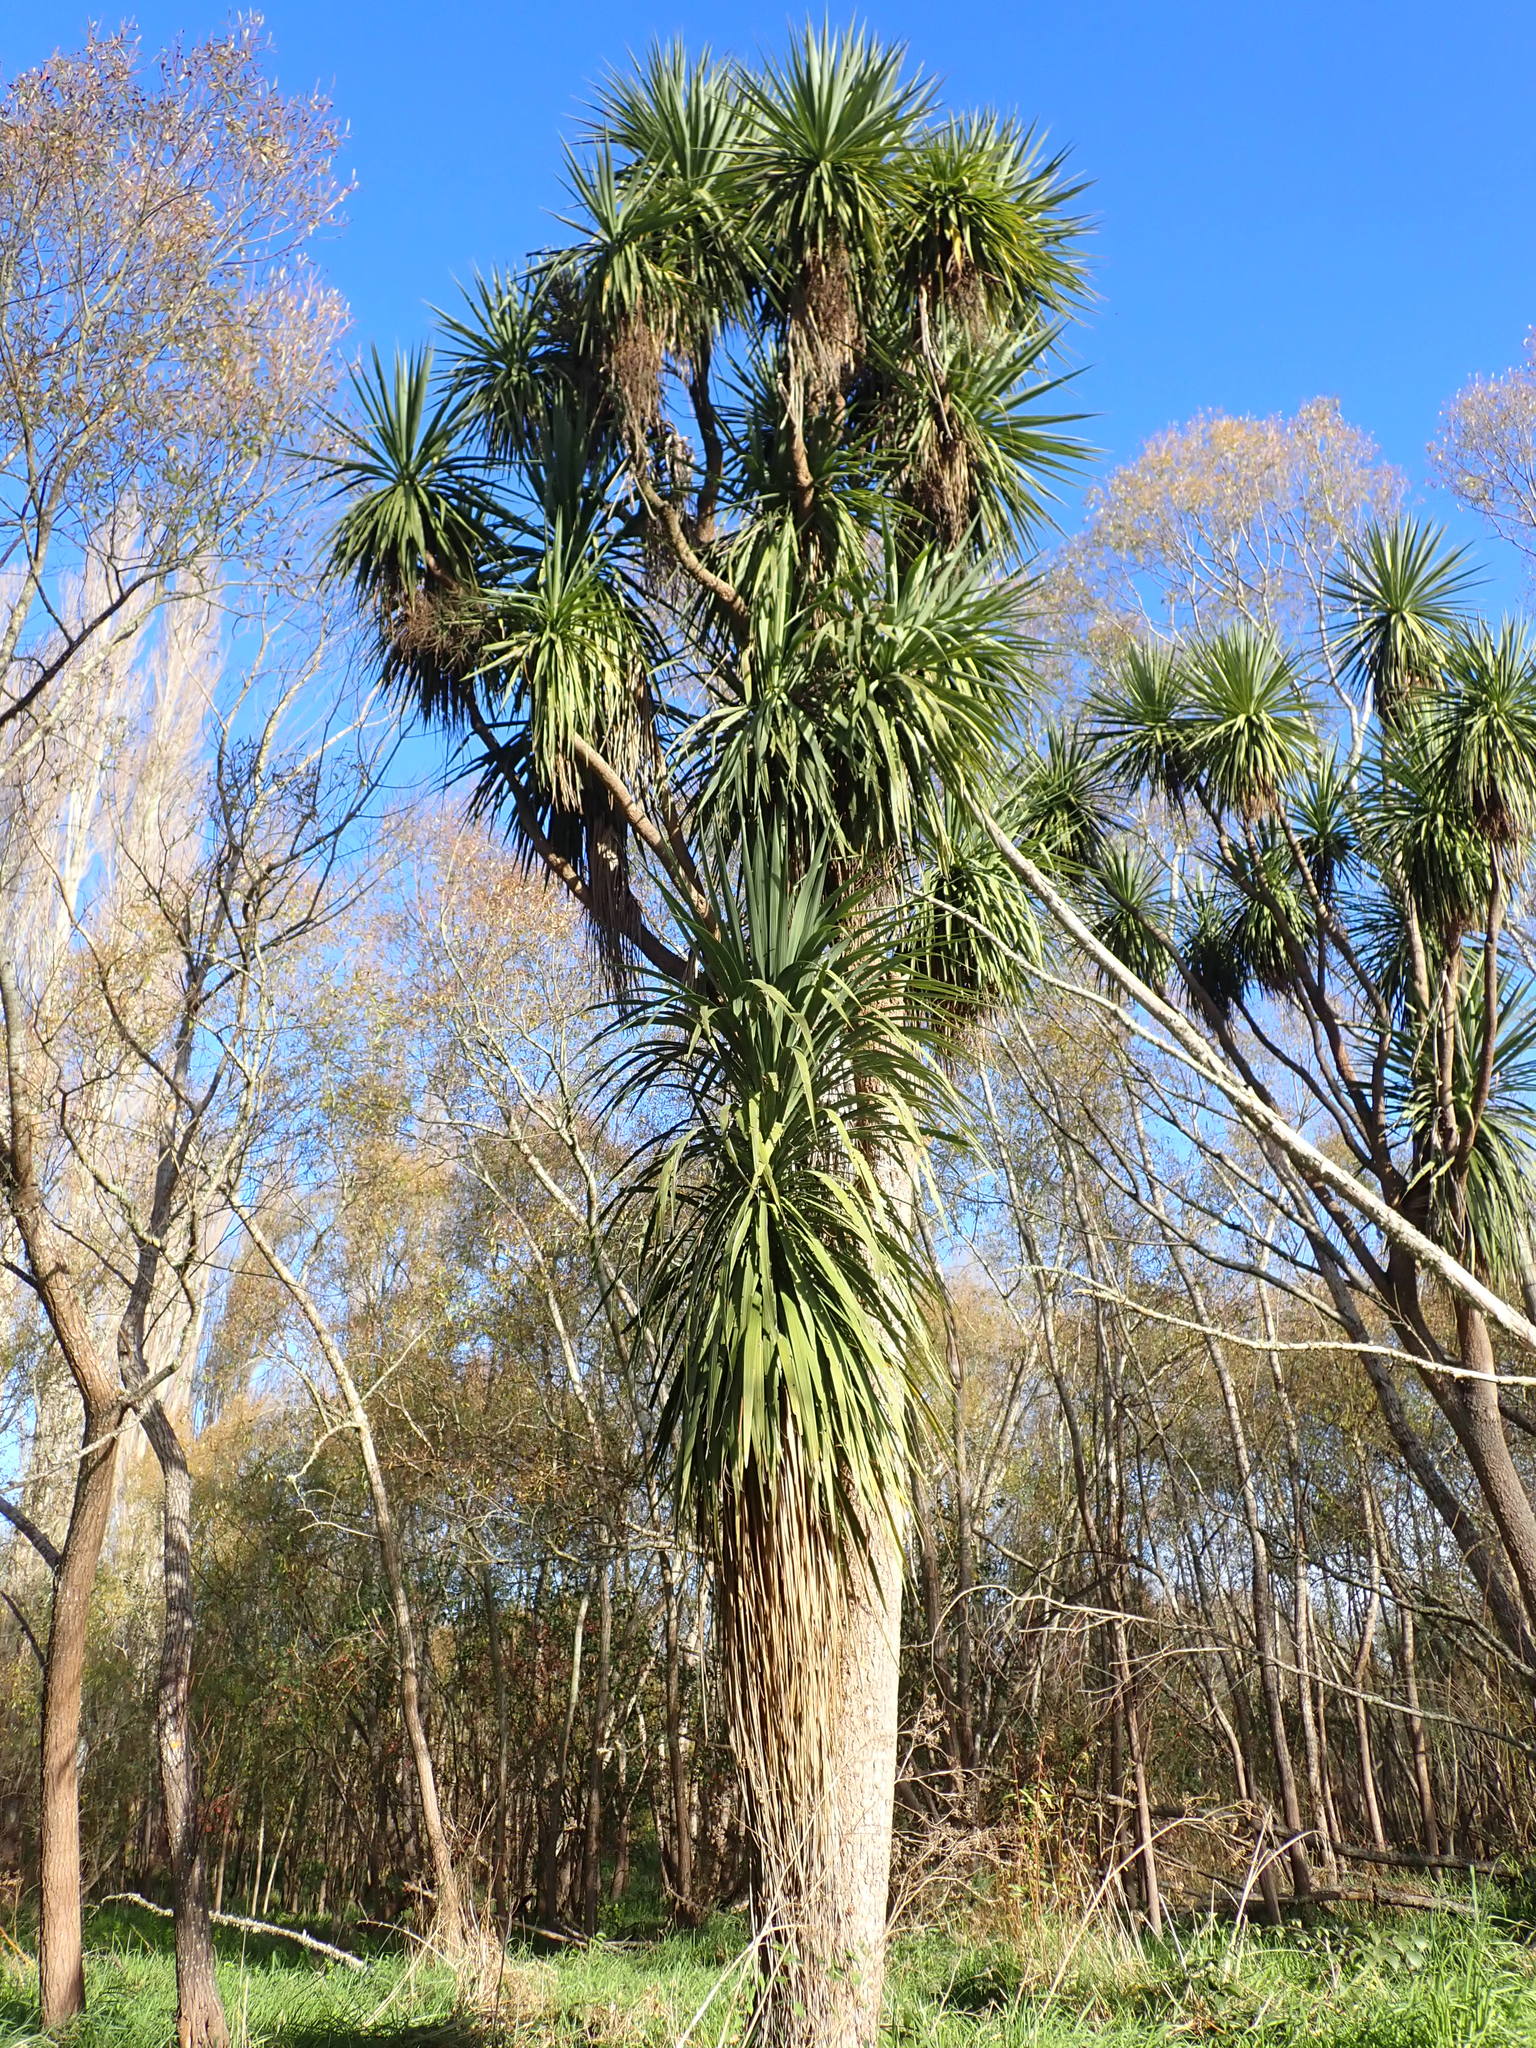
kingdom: Plantae
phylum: Tracheophyta
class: Liliopsida
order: Asparagales
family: Asparagaceae
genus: Cordyline
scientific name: Cordyline australis
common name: Cabbage-palm
